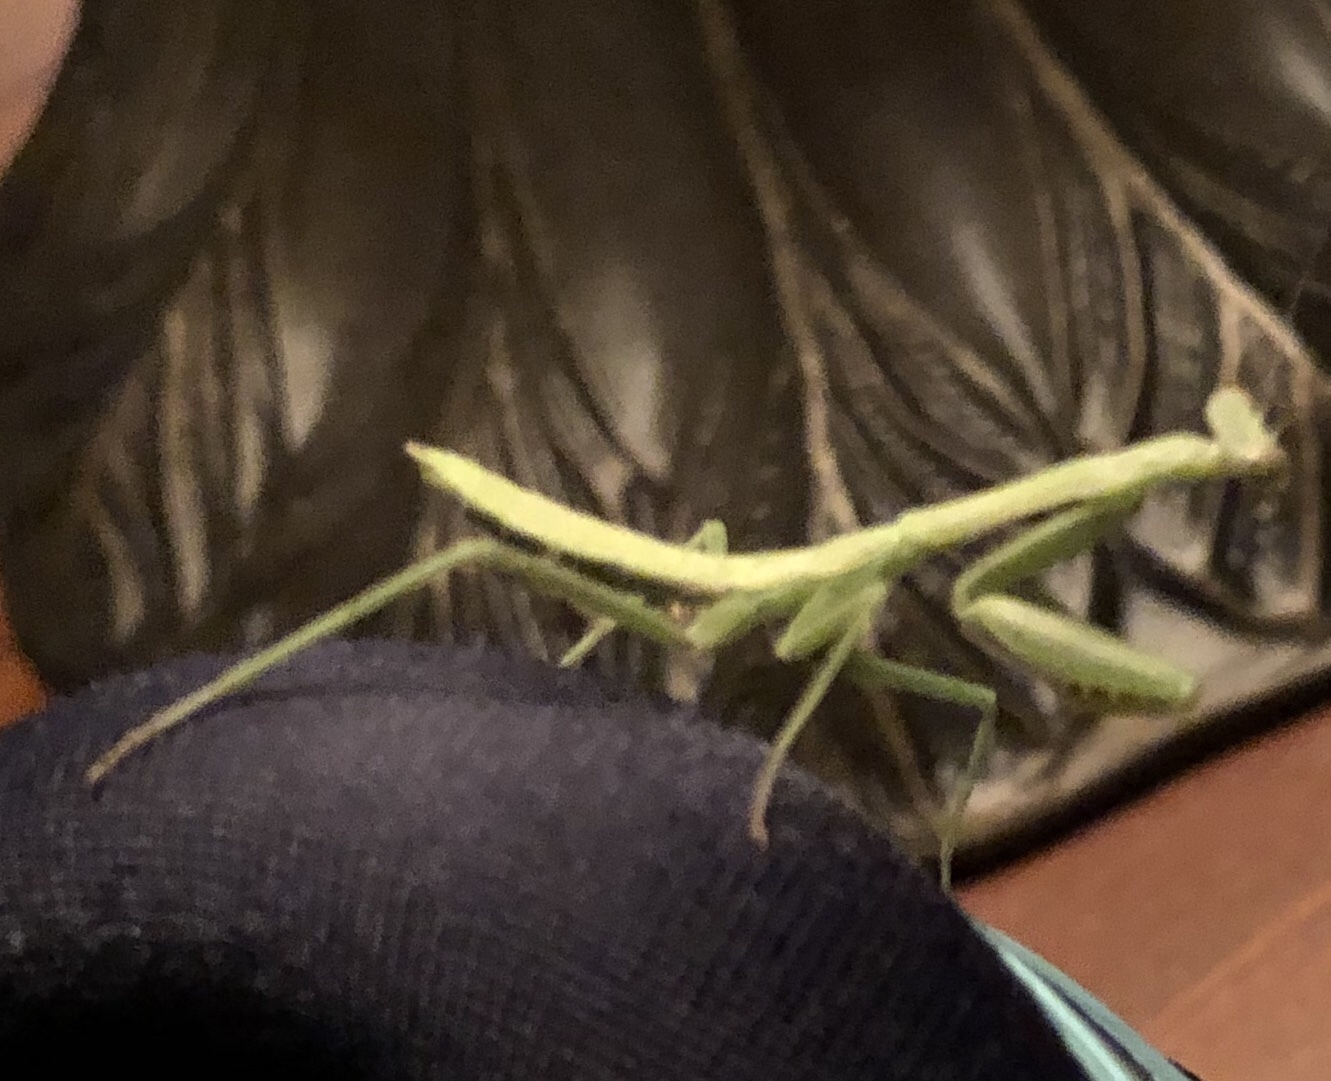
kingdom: Animalia
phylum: Arthropoda
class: Insecta
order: Mantodea
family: Mantidae
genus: Stagmomantis
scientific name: Stagmomantis carolina
